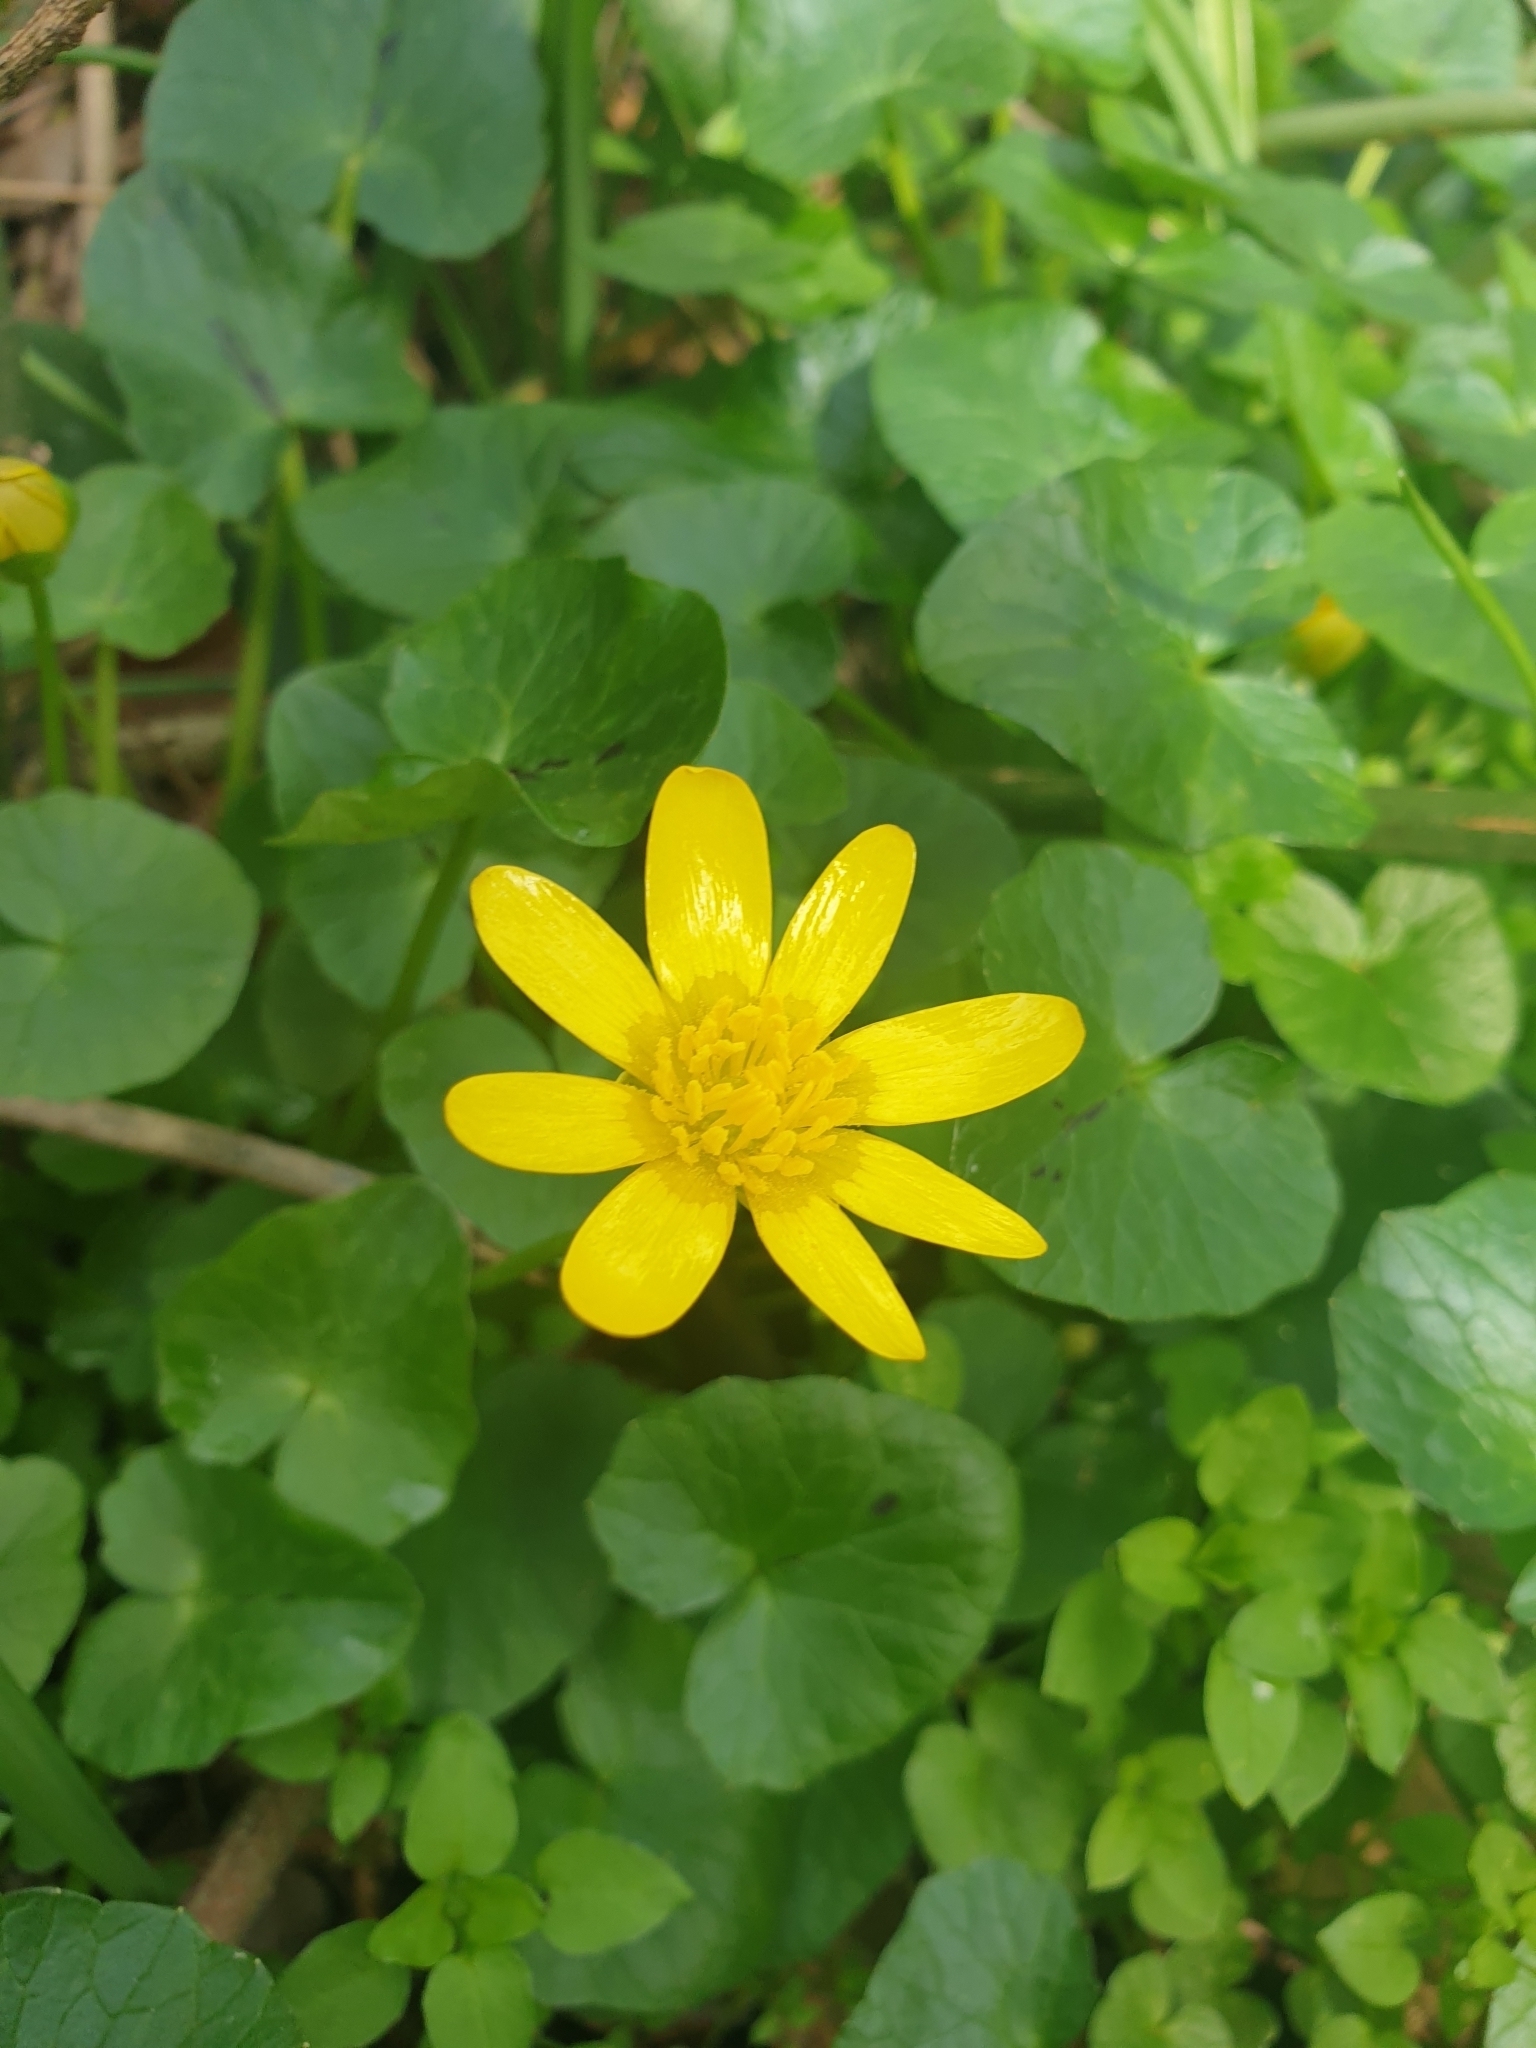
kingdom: Plantae
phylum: Tracheophyta
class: Magnoliopsida
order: Ranunculales
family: Ranunculaceae
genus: Ficaria
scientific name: Ficaria verna
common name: Lesser celandine
